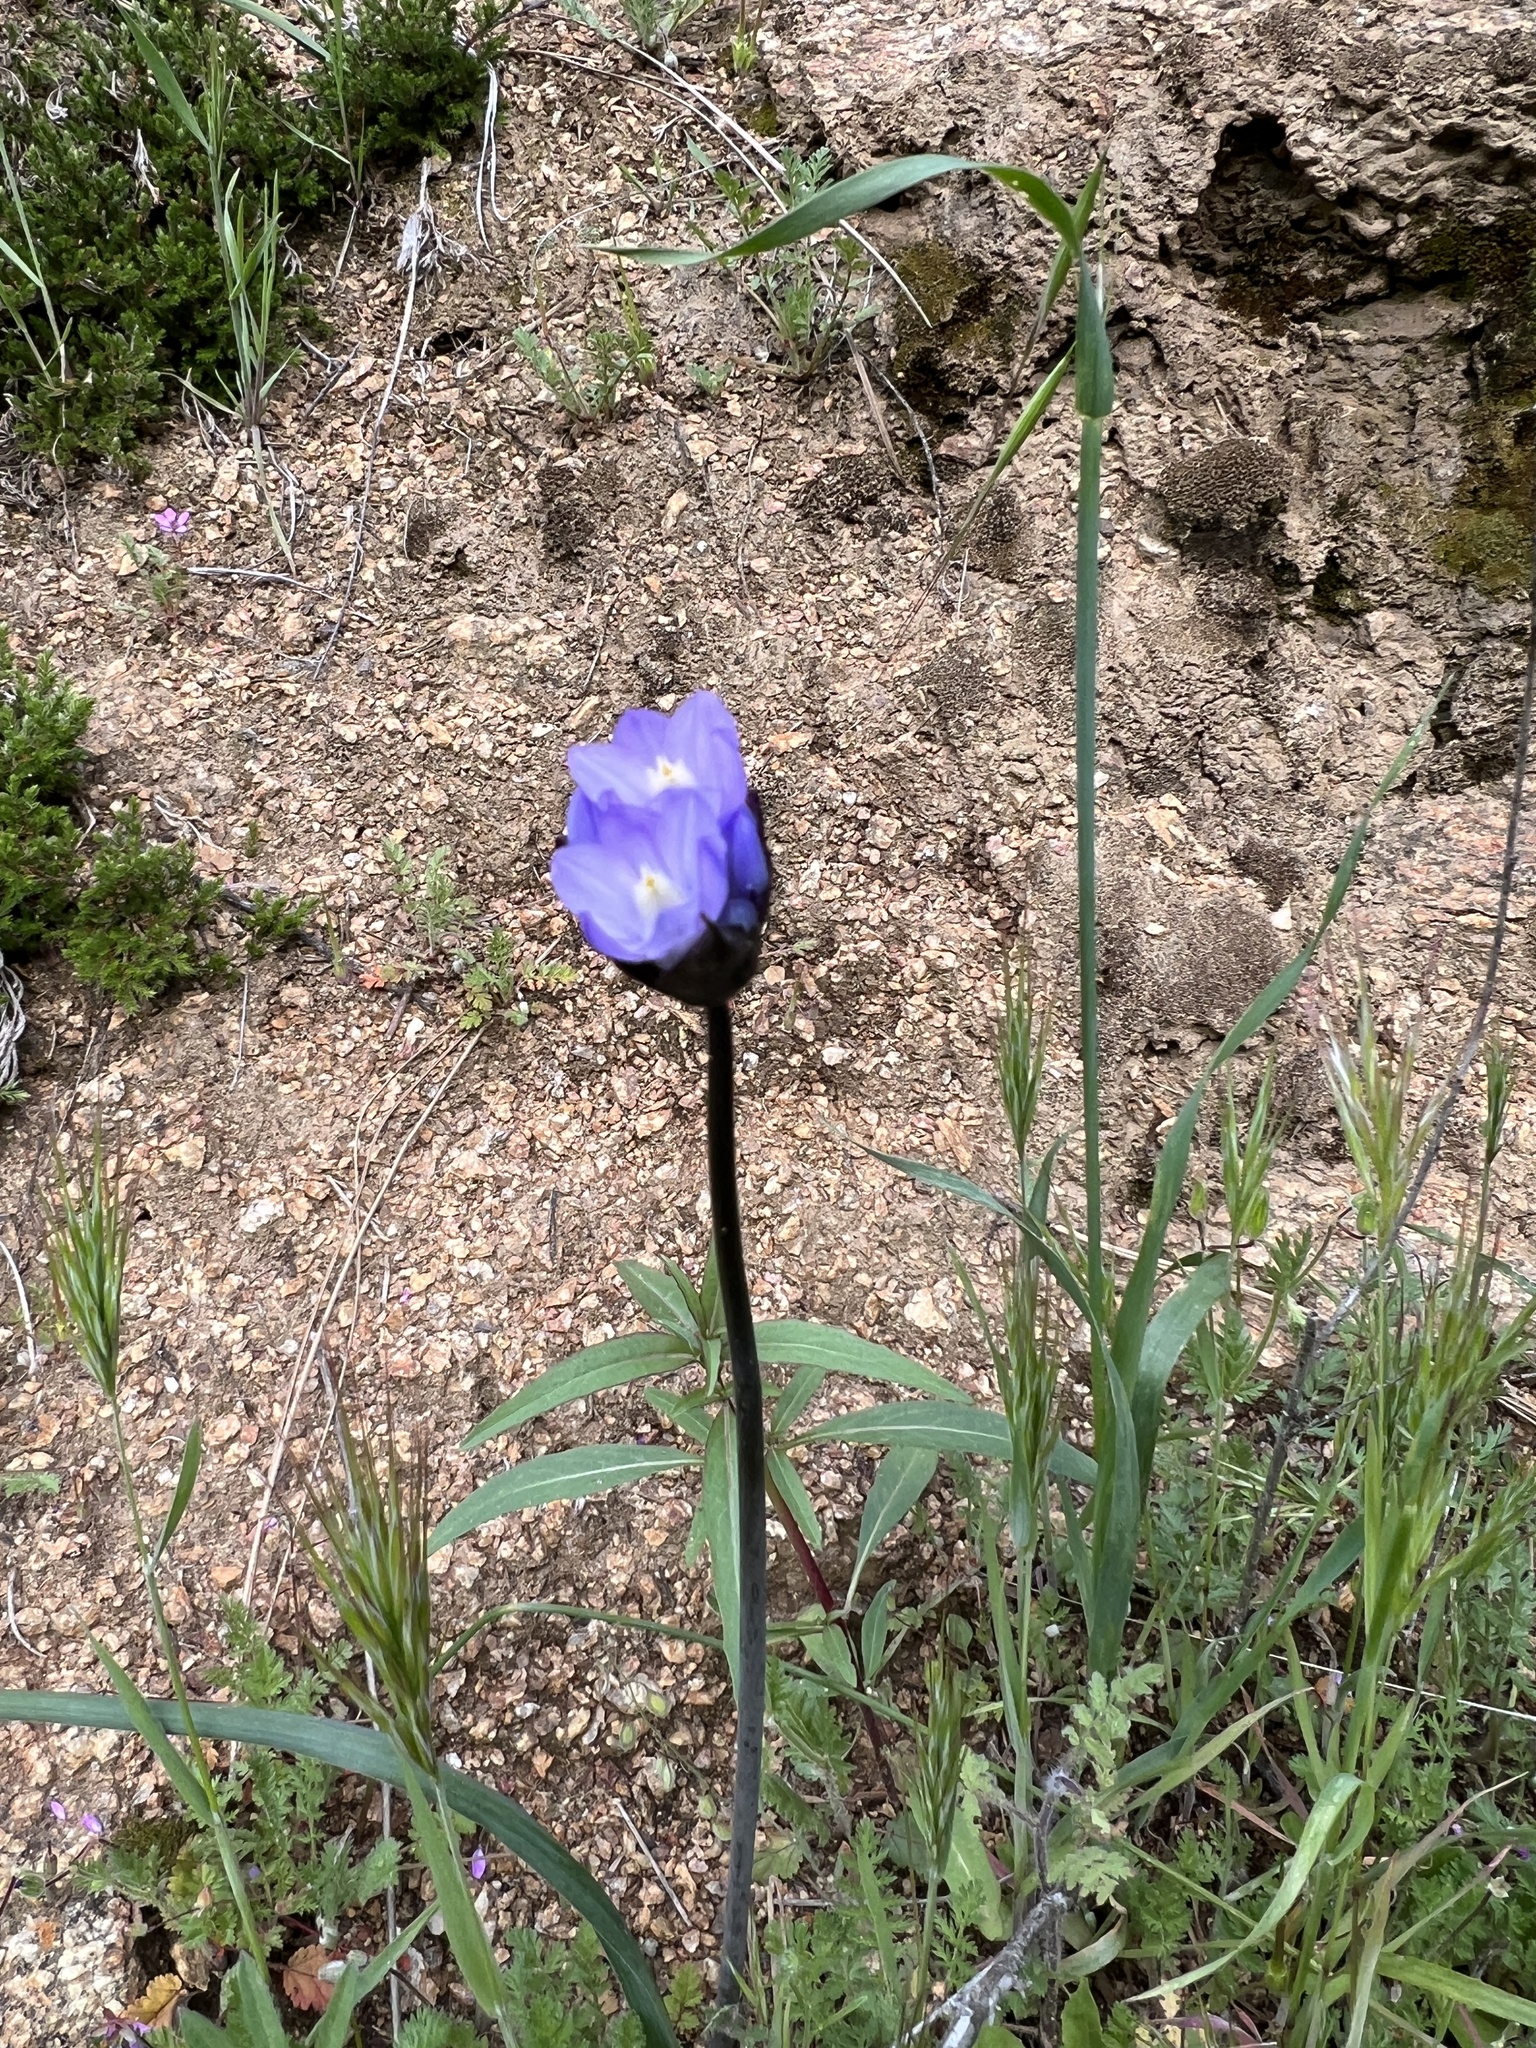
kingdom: Plantae
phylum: Tracheophyta
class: Liliopsida
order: Asparagales
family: Asparagaceae
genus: Dipterostemon
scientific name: Dipterostemon capitatus
